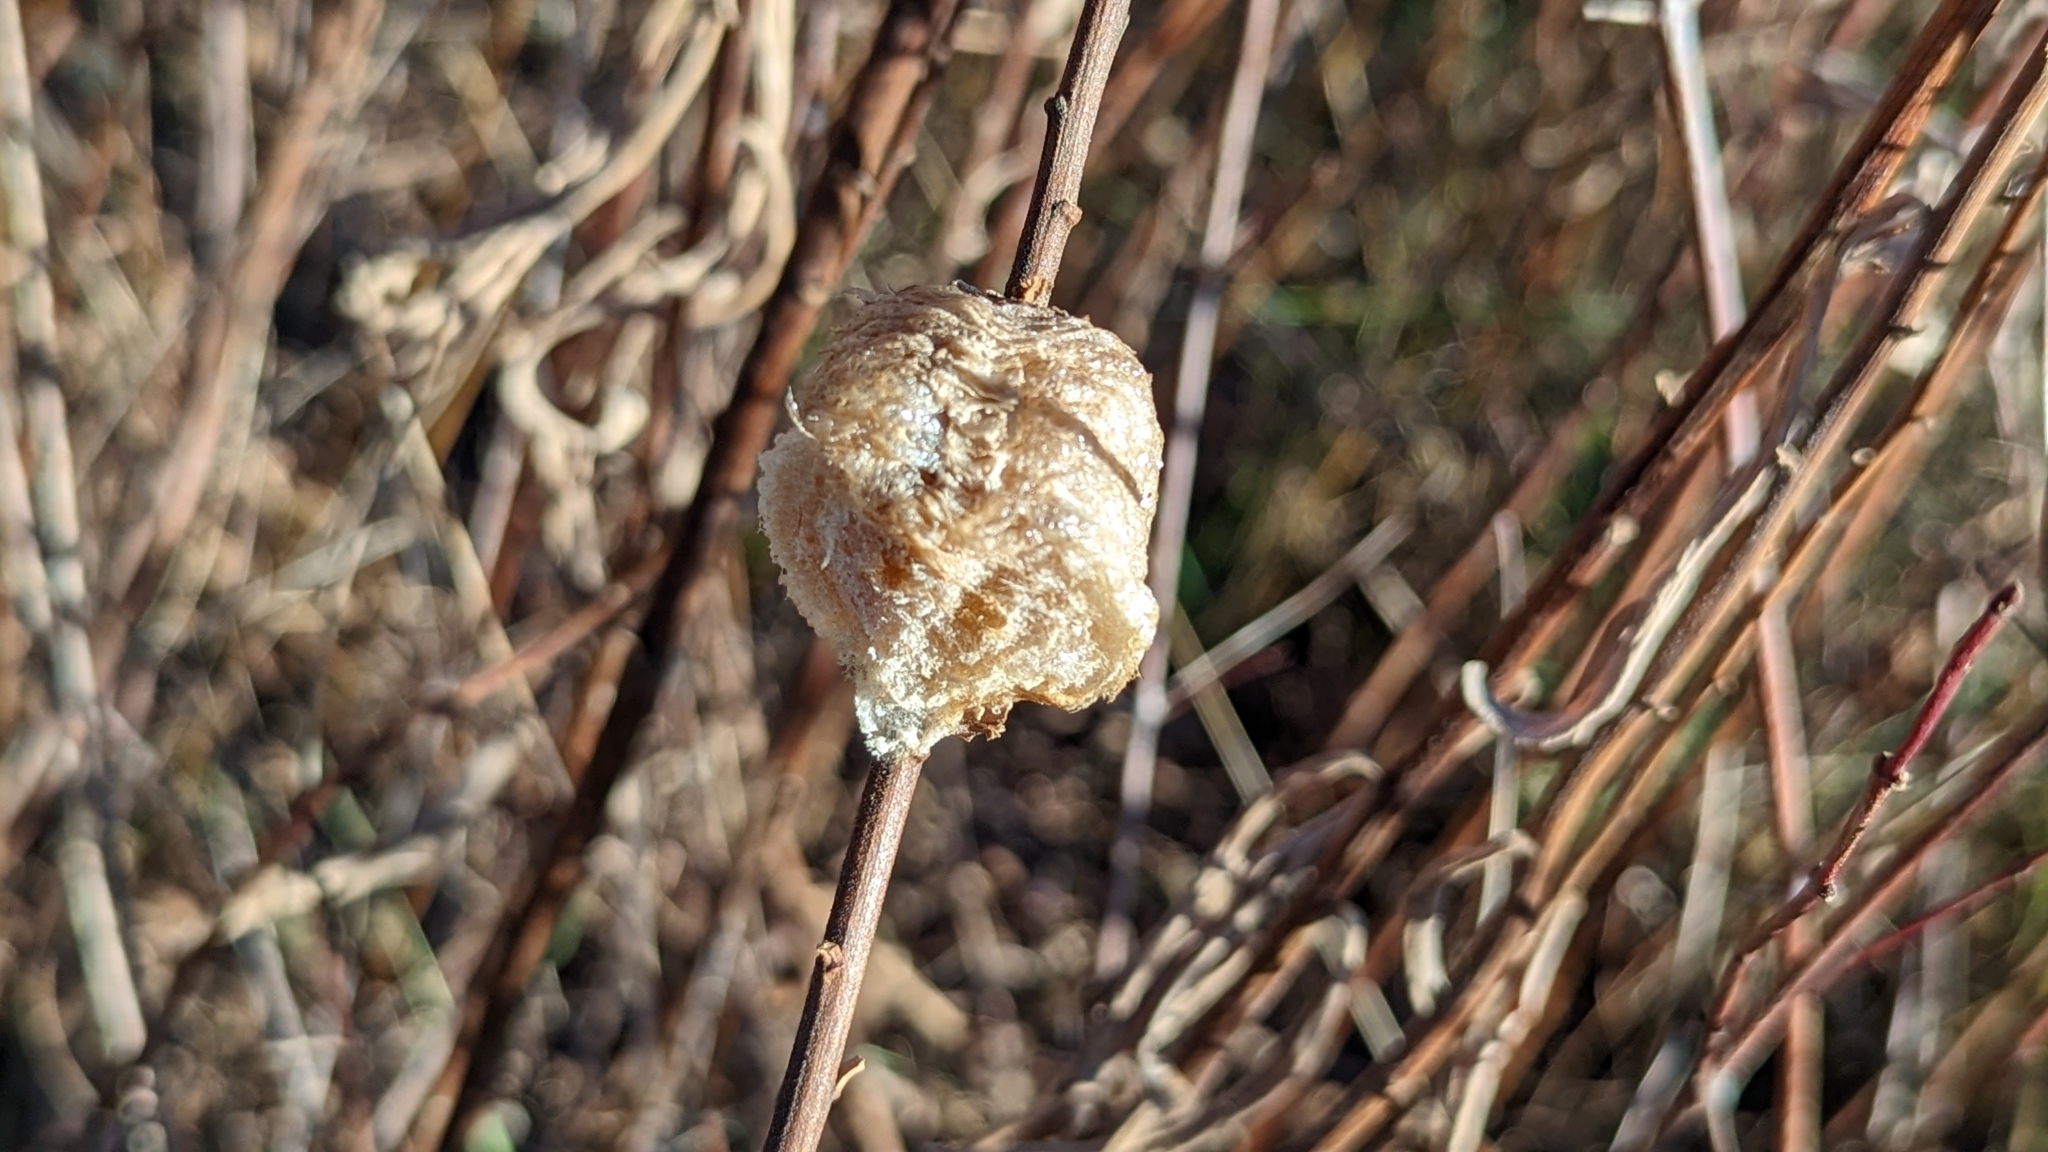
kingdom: Animalia
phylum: Arthropoda
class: Insecta
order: Mantodea
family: Mantidae
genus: Tenodera
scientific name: Tenodera sinensis
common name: Chinese mantis
